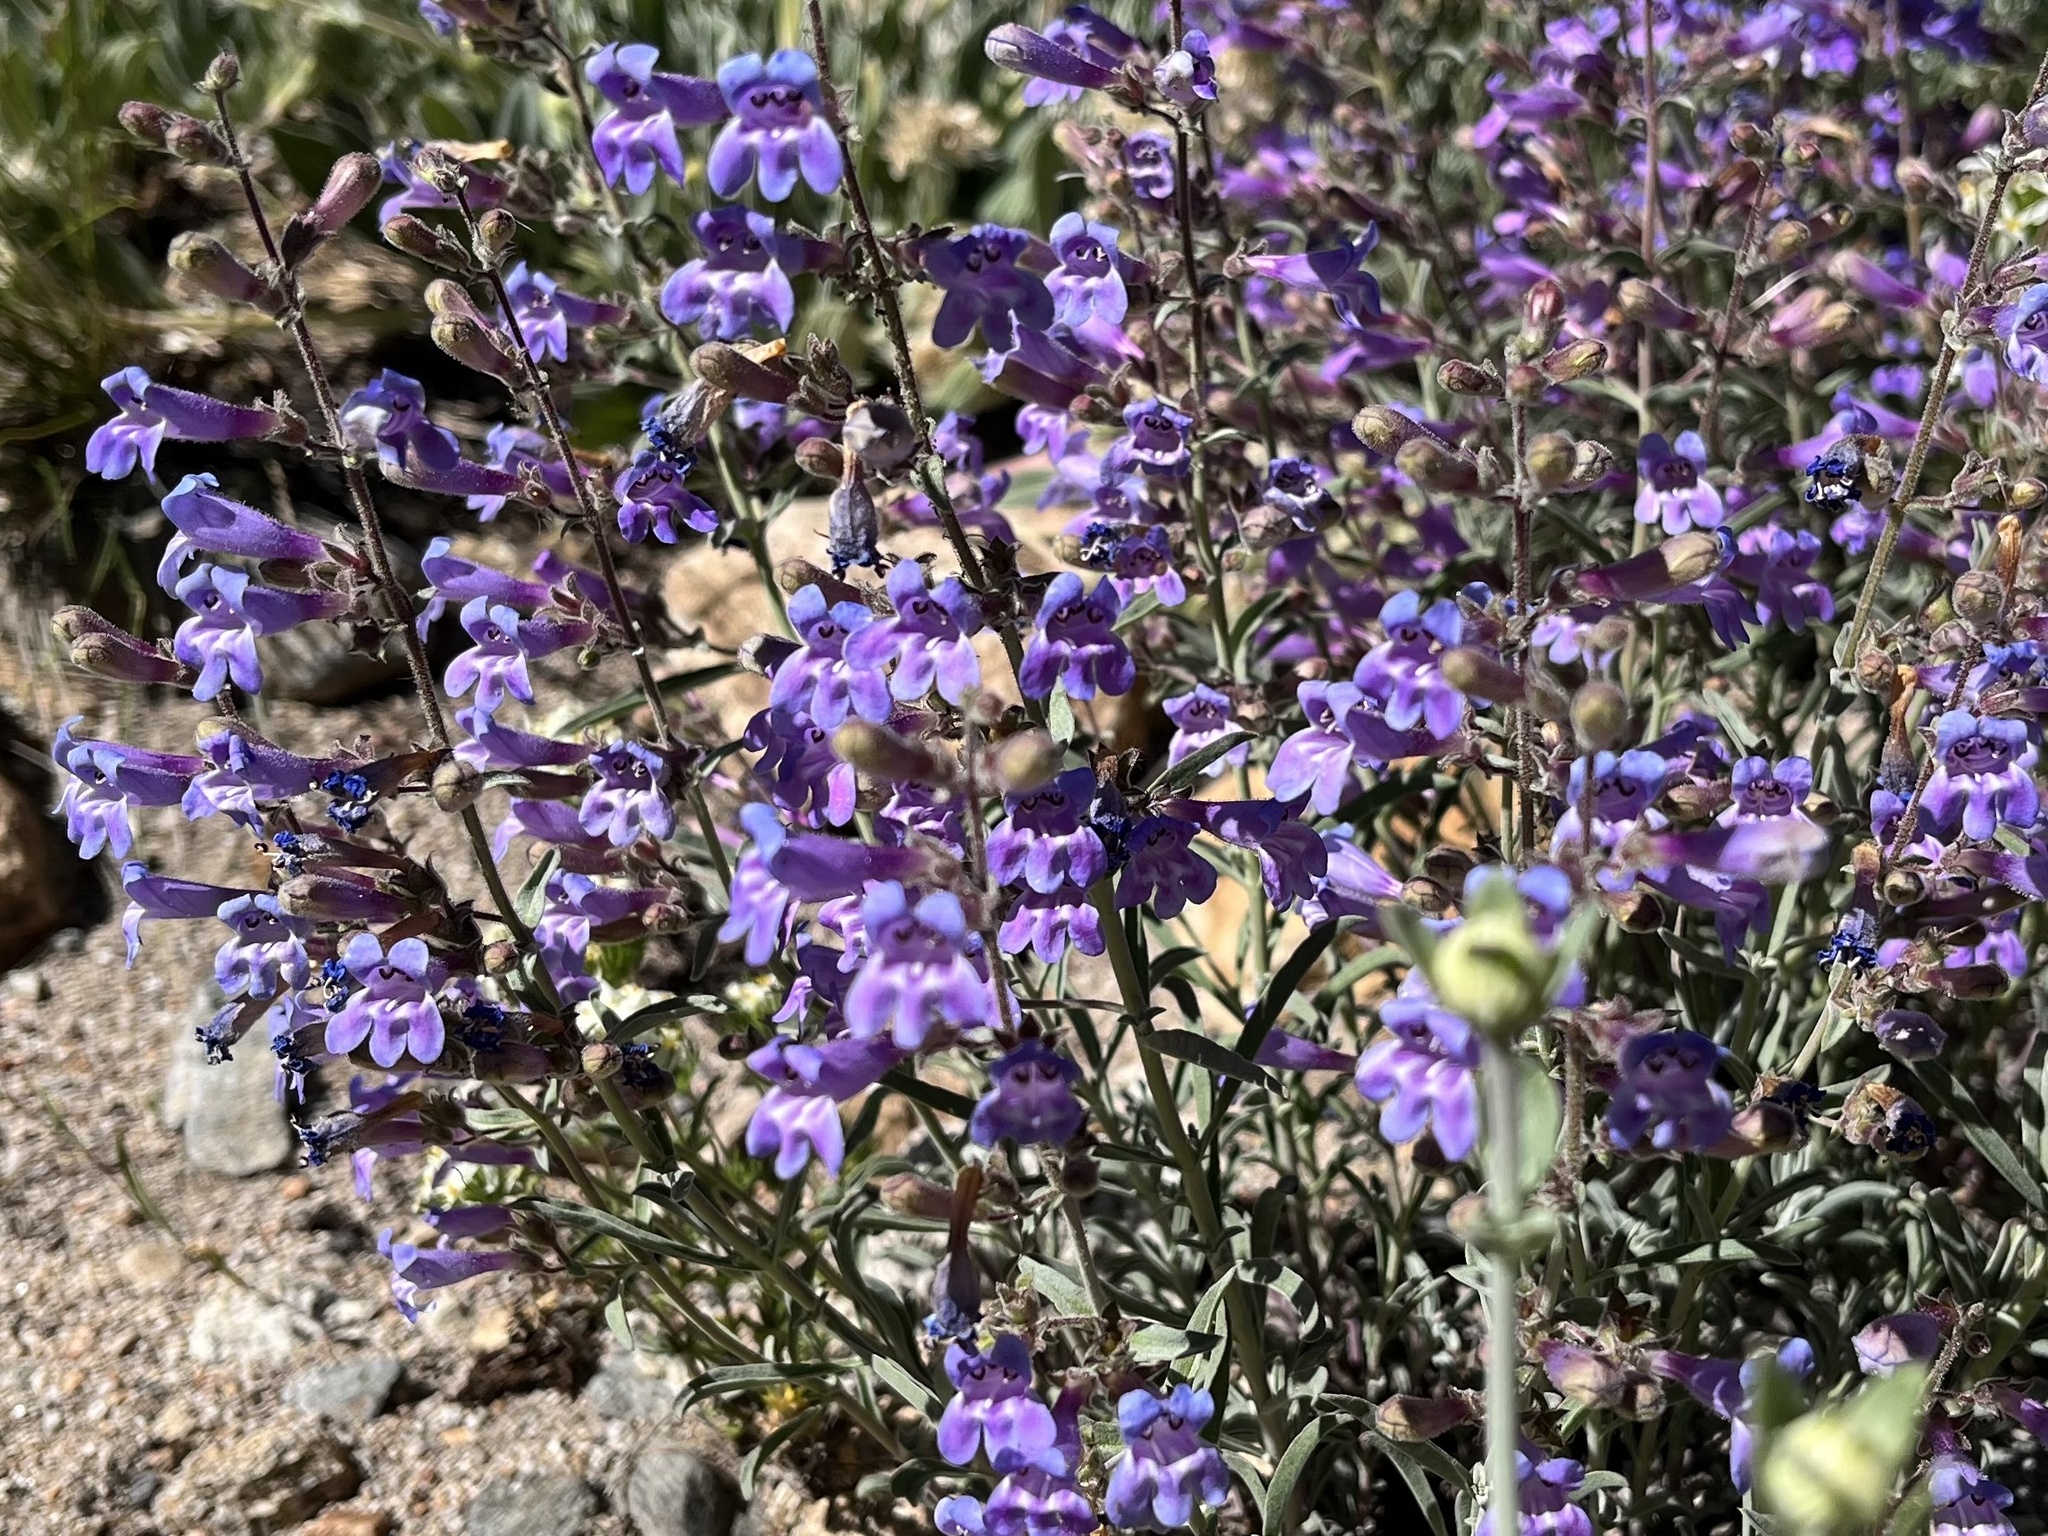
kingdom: Plantae
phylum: Tracheophyta
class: Magnoliopsida
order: Lamiales
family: Plantaginaceae
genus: Penstemon
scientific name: Penstemon laetus
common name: Gay penstemon
